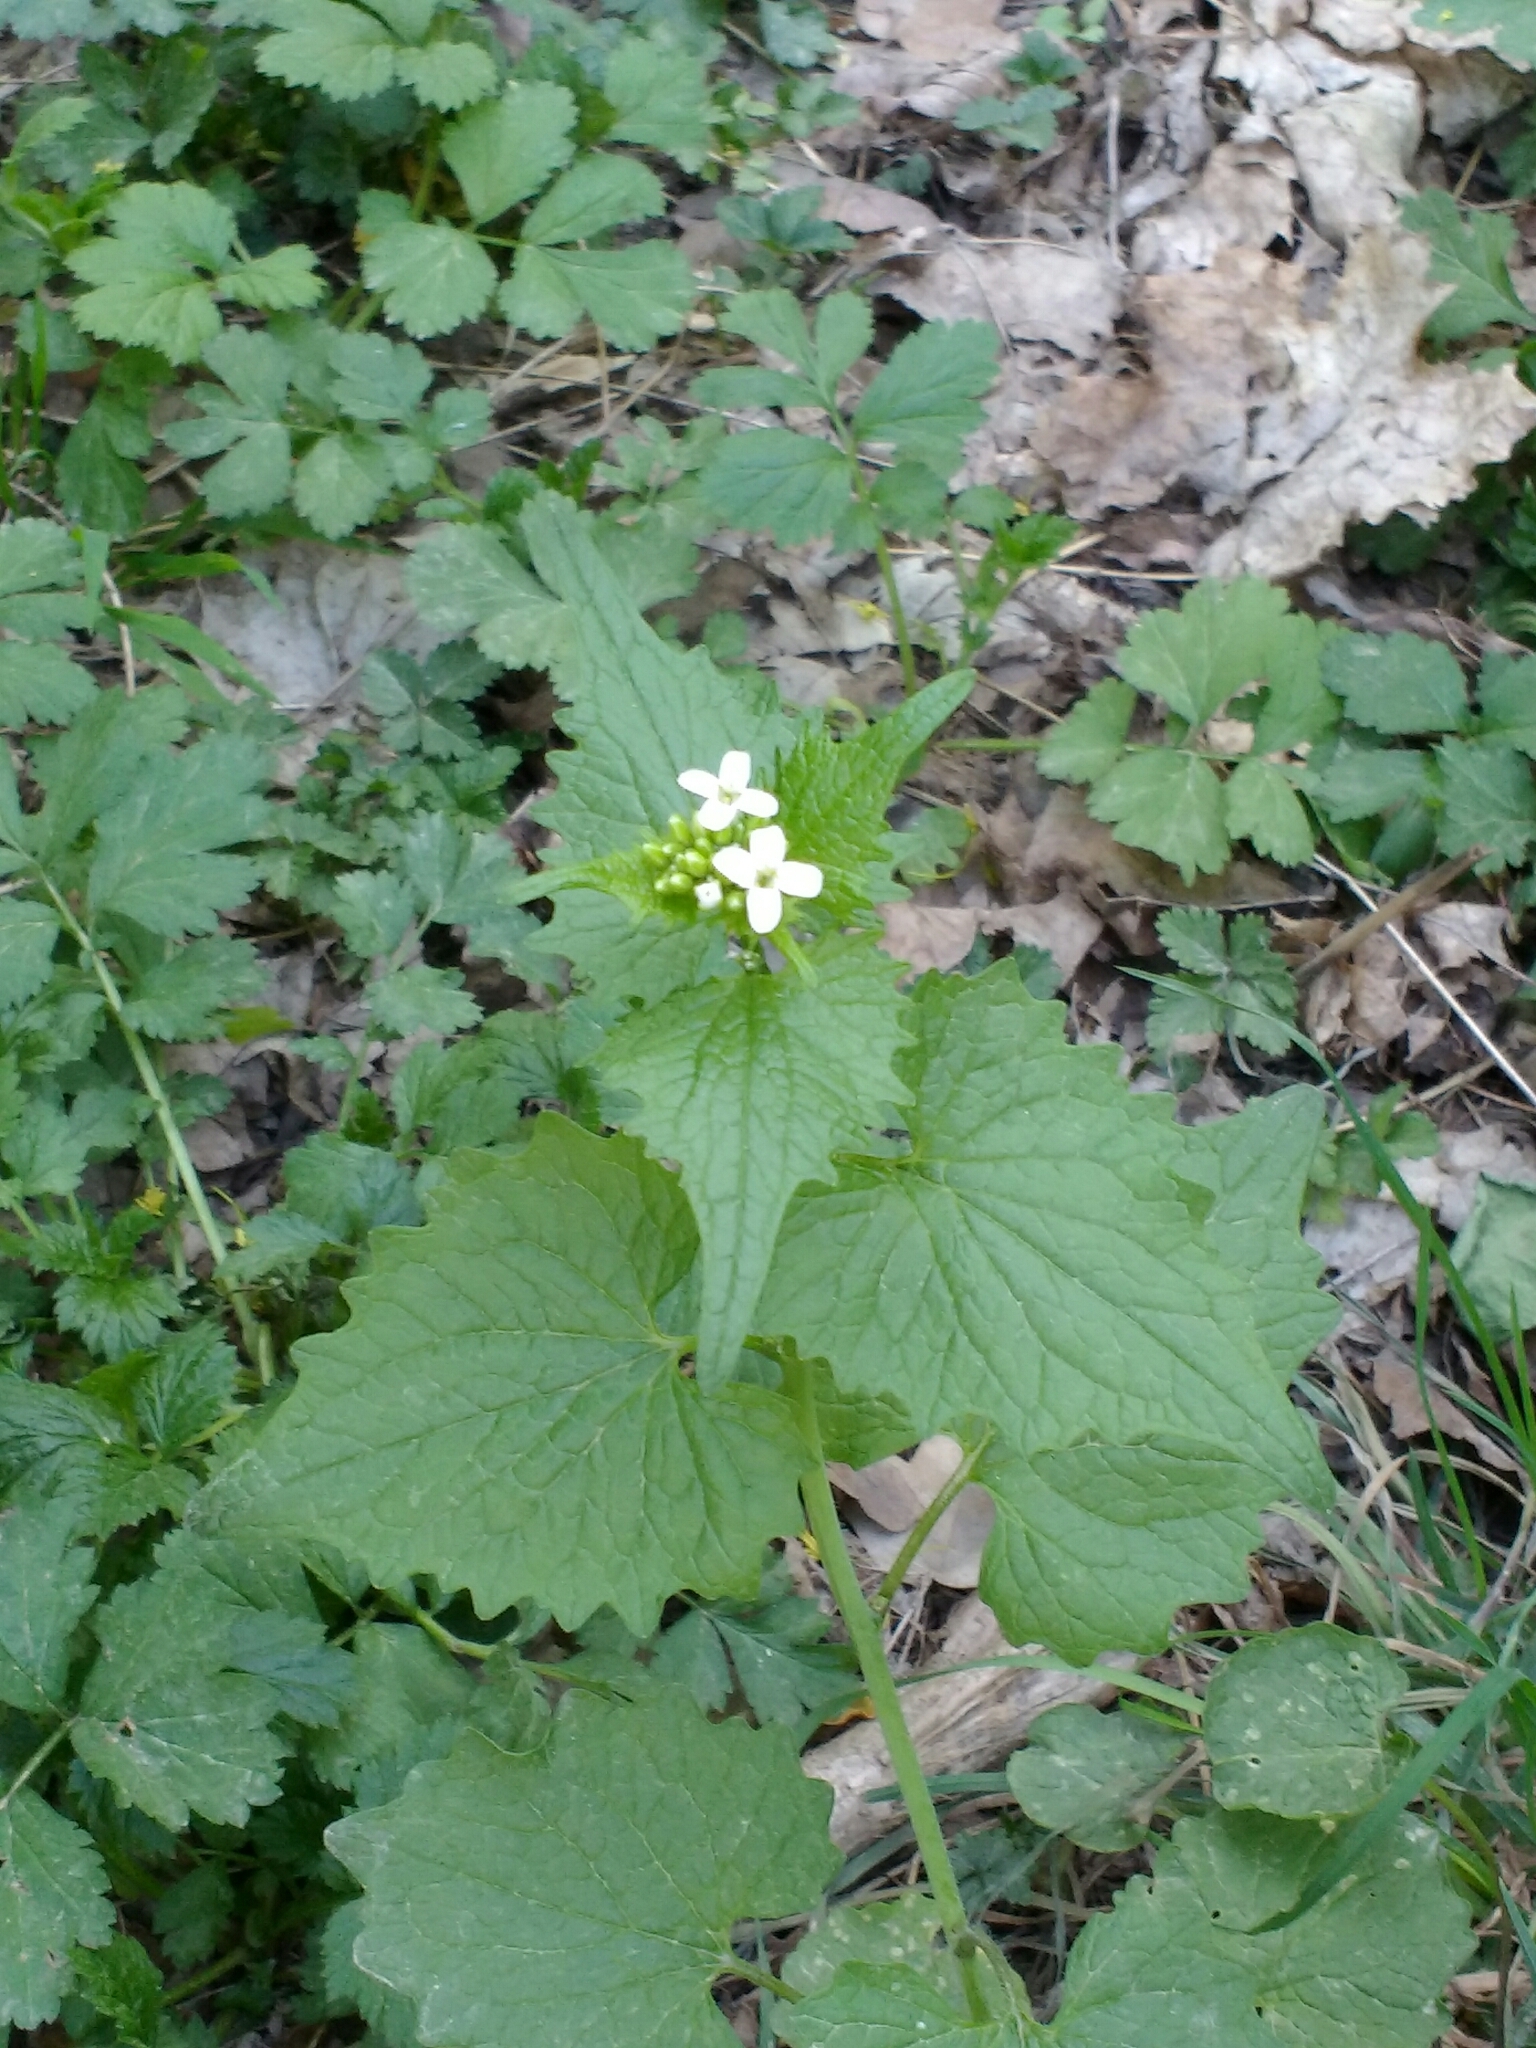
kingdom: Plantae
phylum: Tracheophyta
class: Magnoliopsida
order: Brassicales
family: Brassicaceae
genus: Alliaria
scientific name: Alliaria petiolata
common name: Garlic mustard
